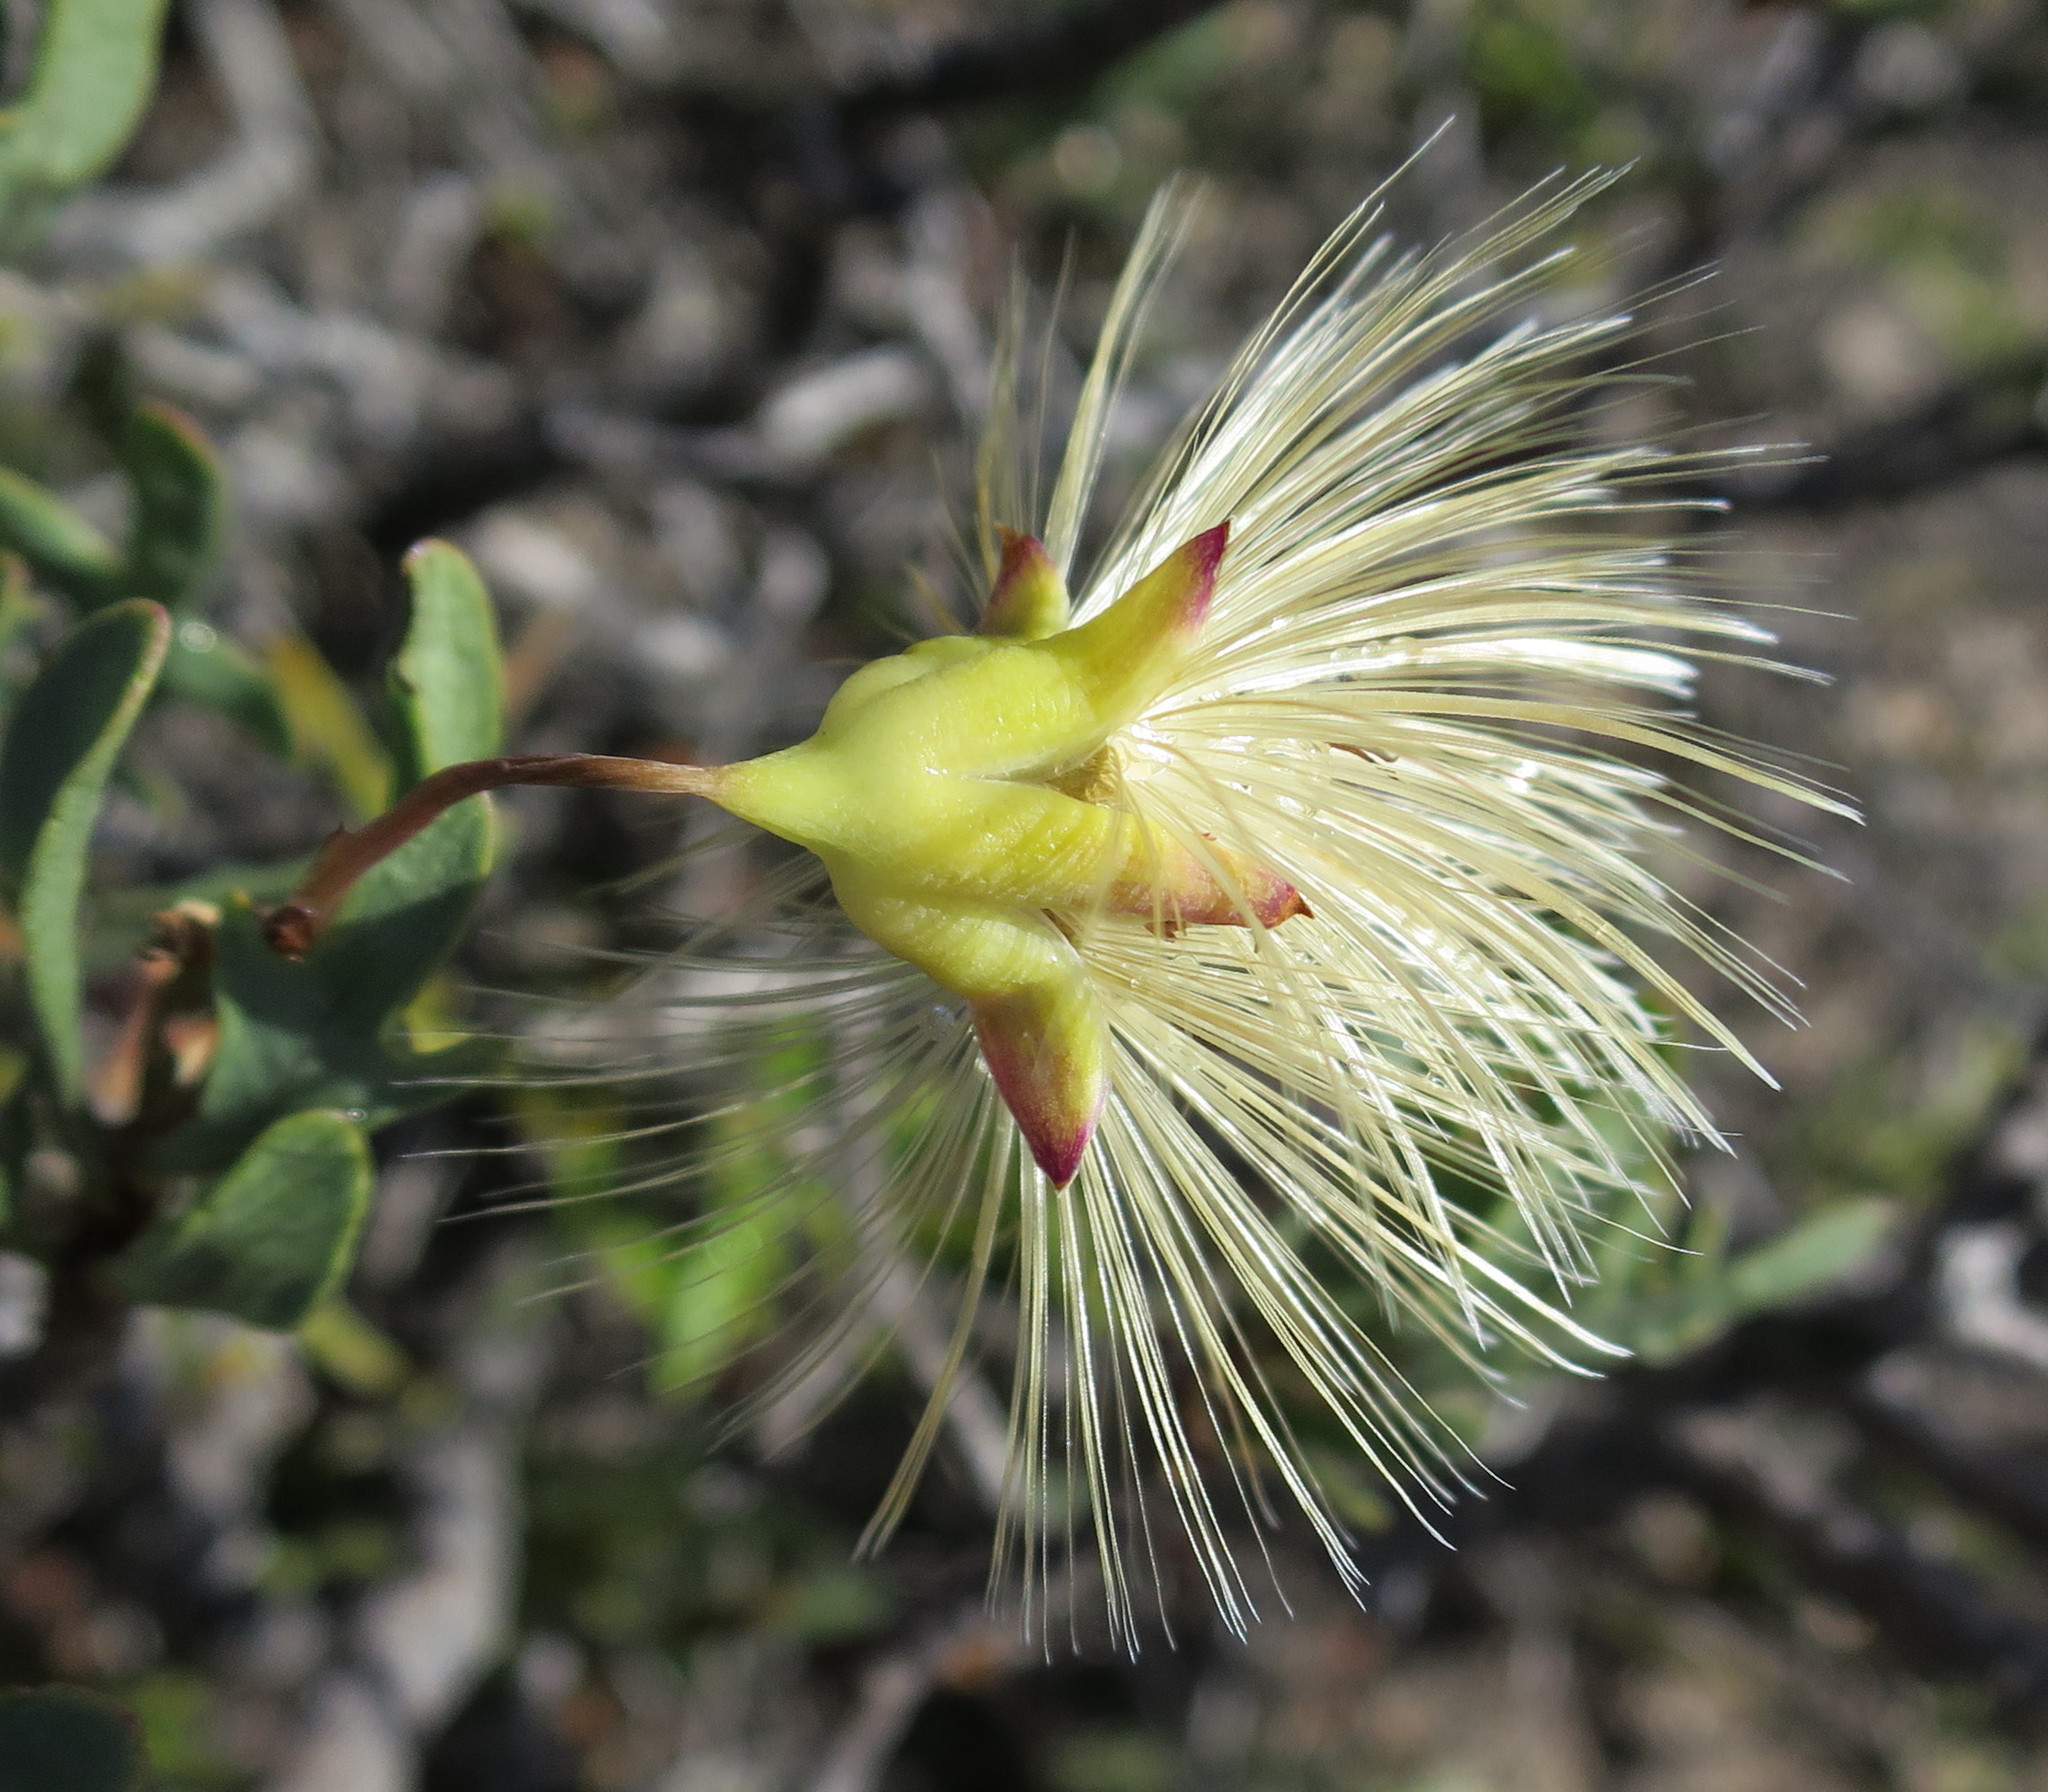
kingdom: Plantae
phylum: Tracheophyta
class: Magnoliopsida
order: Asterales
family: Asteraceae
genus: Othonna
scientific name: Othonna retrofracta
